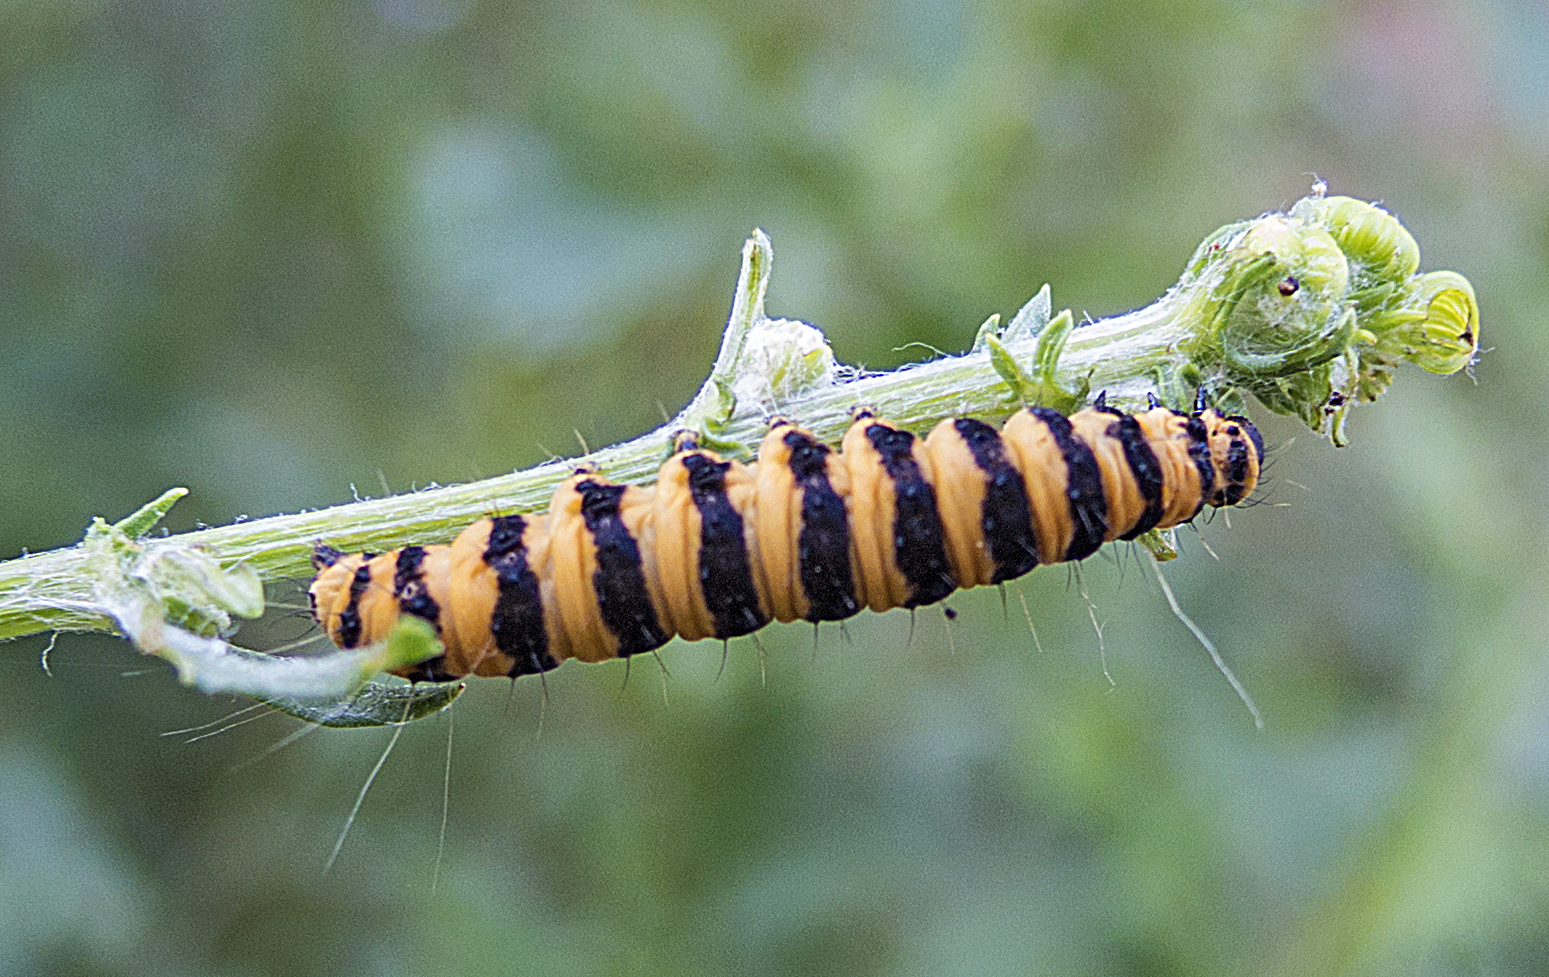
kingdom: Animalia
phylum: Arthropoda
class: Insecta
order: Lepidoptera
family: Erebidae
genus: Tyria
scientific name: Tyria jacobaeae
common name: Cinnabar
